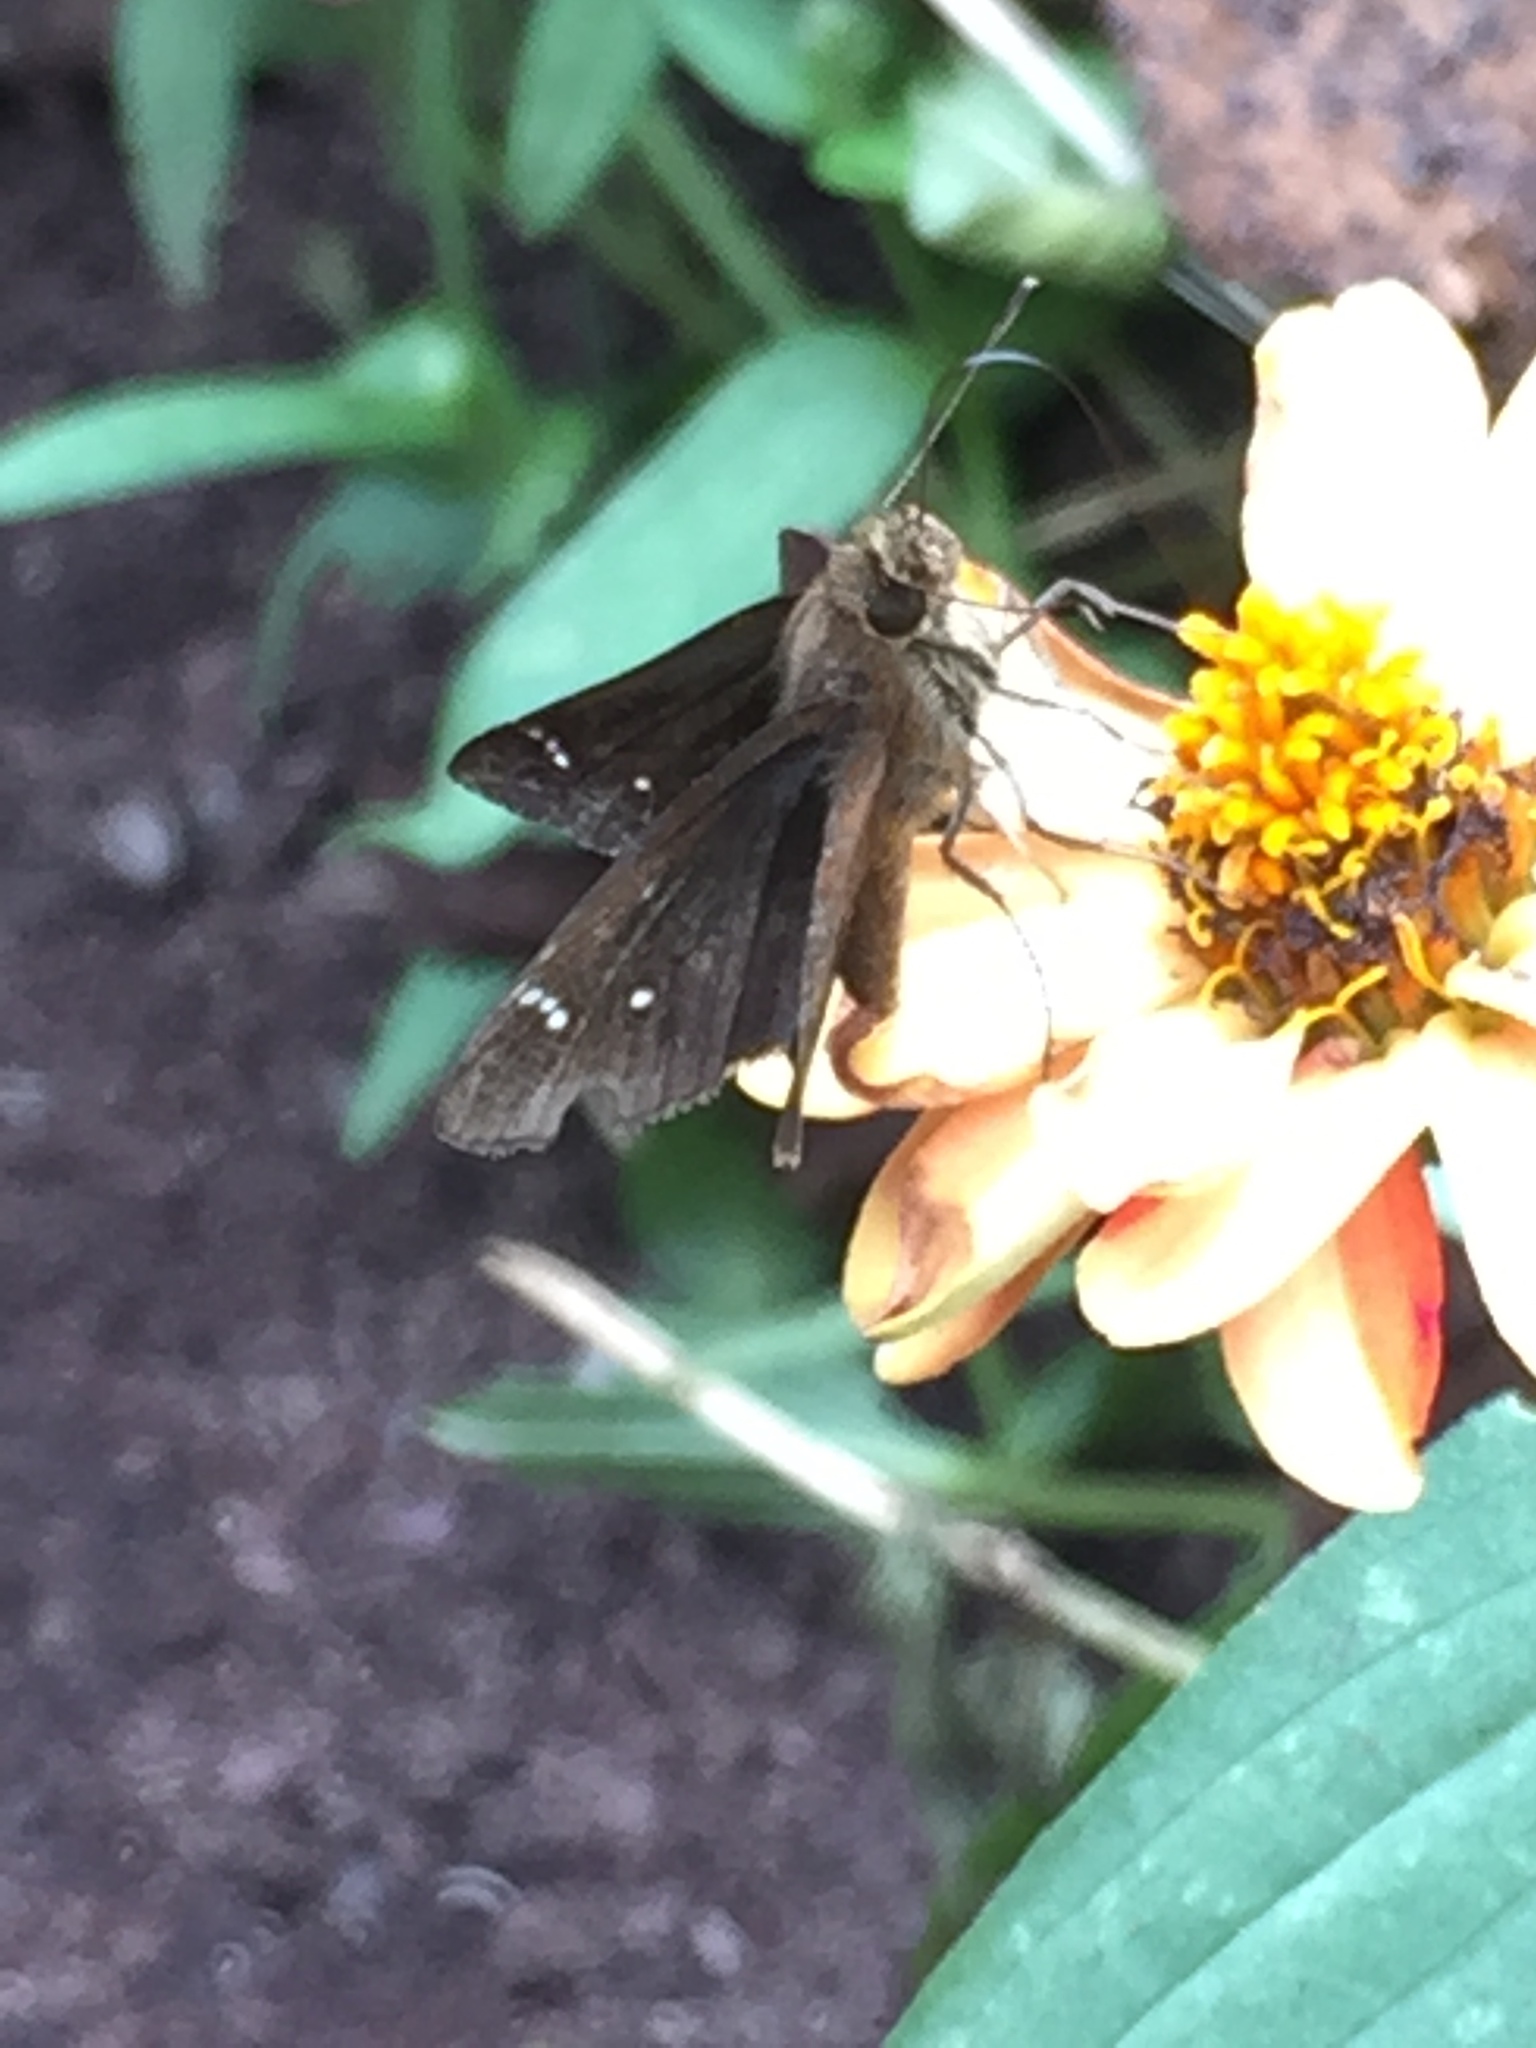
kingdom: Animalia
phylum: Arthropoda
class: Insecta
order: Lepidoptera
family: Hesperiidae
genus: Lerema
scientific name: Lerema accius
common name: Clouded skipper
